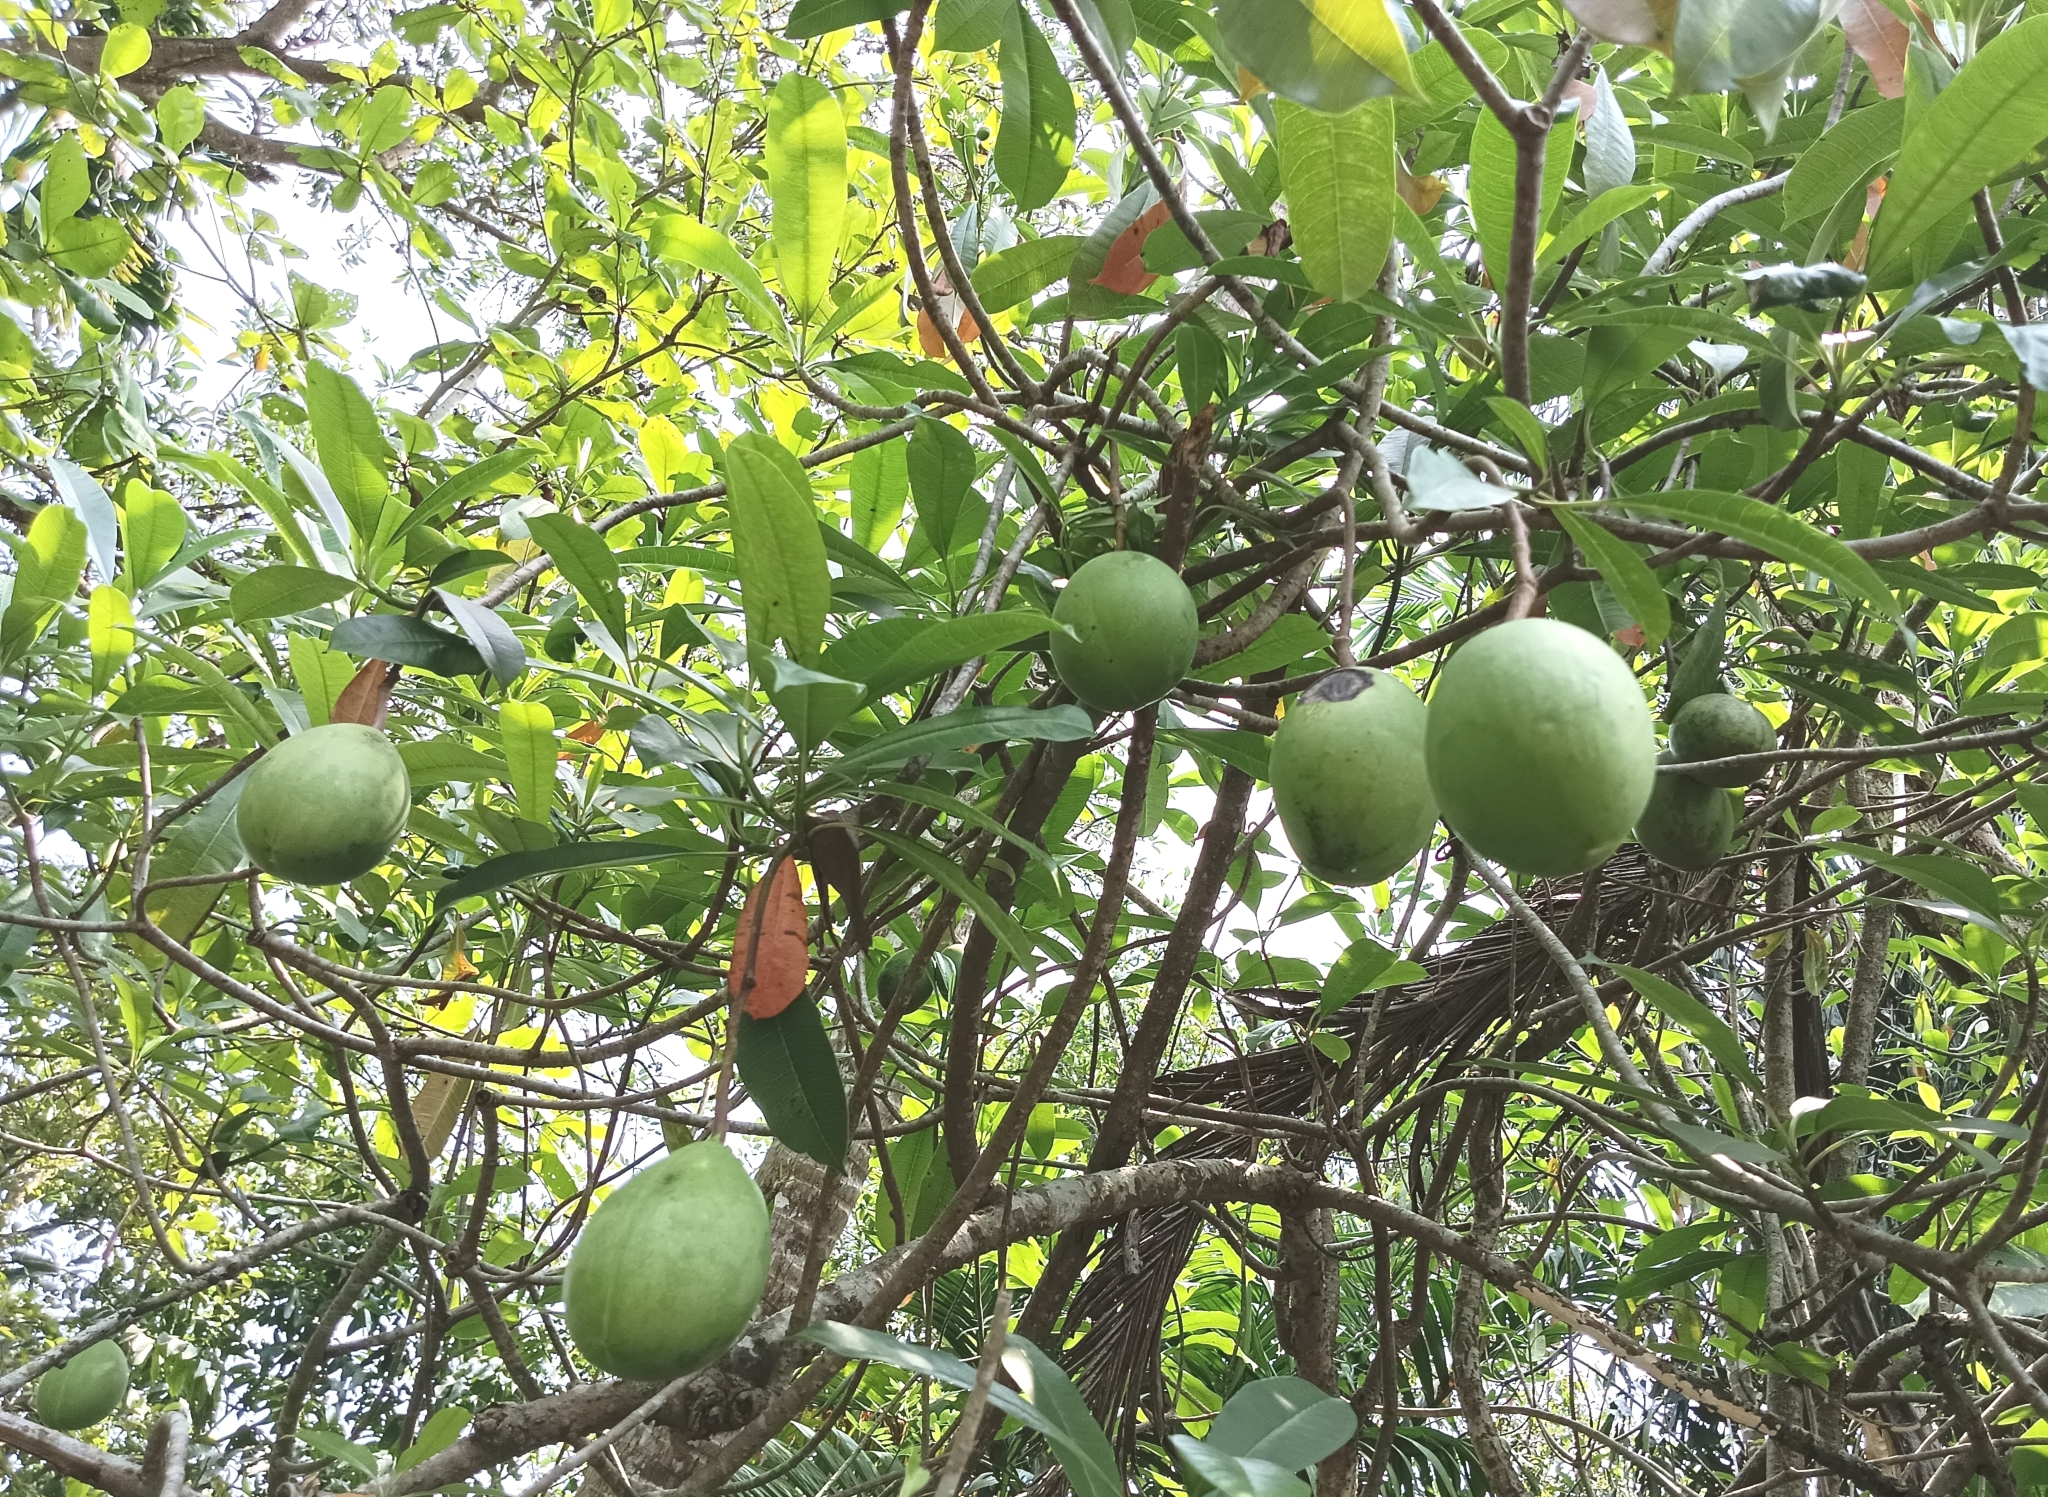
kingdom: Plantae
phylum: Tracheophyta
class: Magnoliopsida
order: Gentianales
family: Apocynaceae
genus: Cerbera
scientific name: Cerbera odollam
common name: Pong-pong
